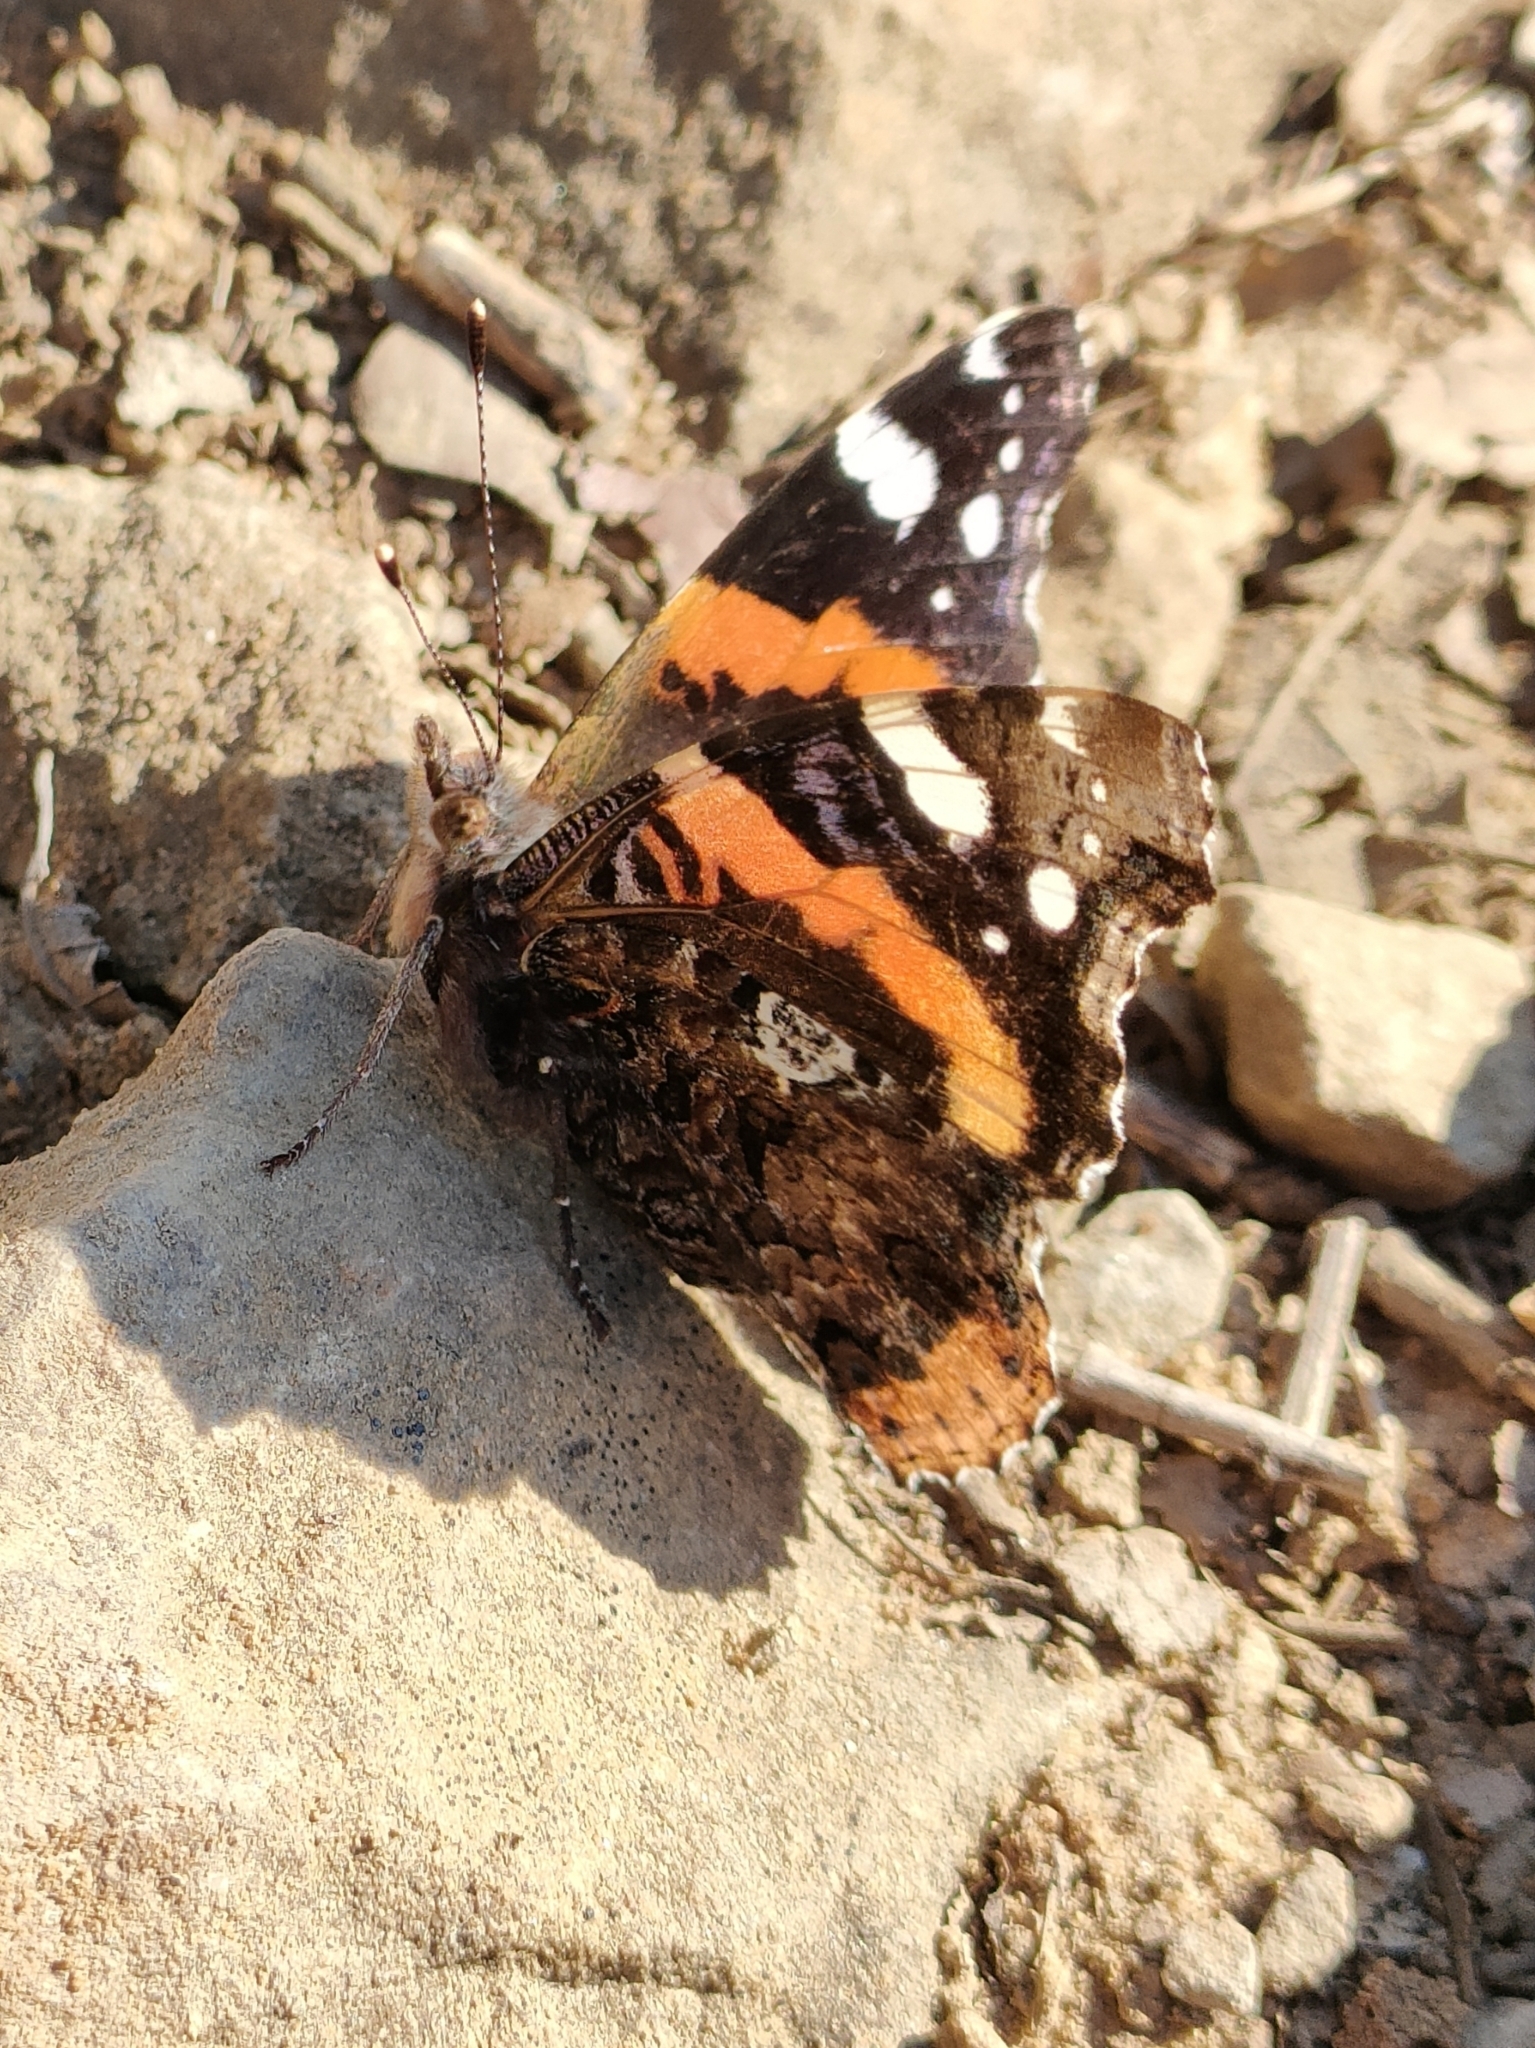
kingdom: Animalia
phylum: Arthropoda
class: Insecta
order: Lepidoptera
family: Nymphalidae
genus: Vanessa
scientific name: Vanessa atalanta
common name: Red admiral
